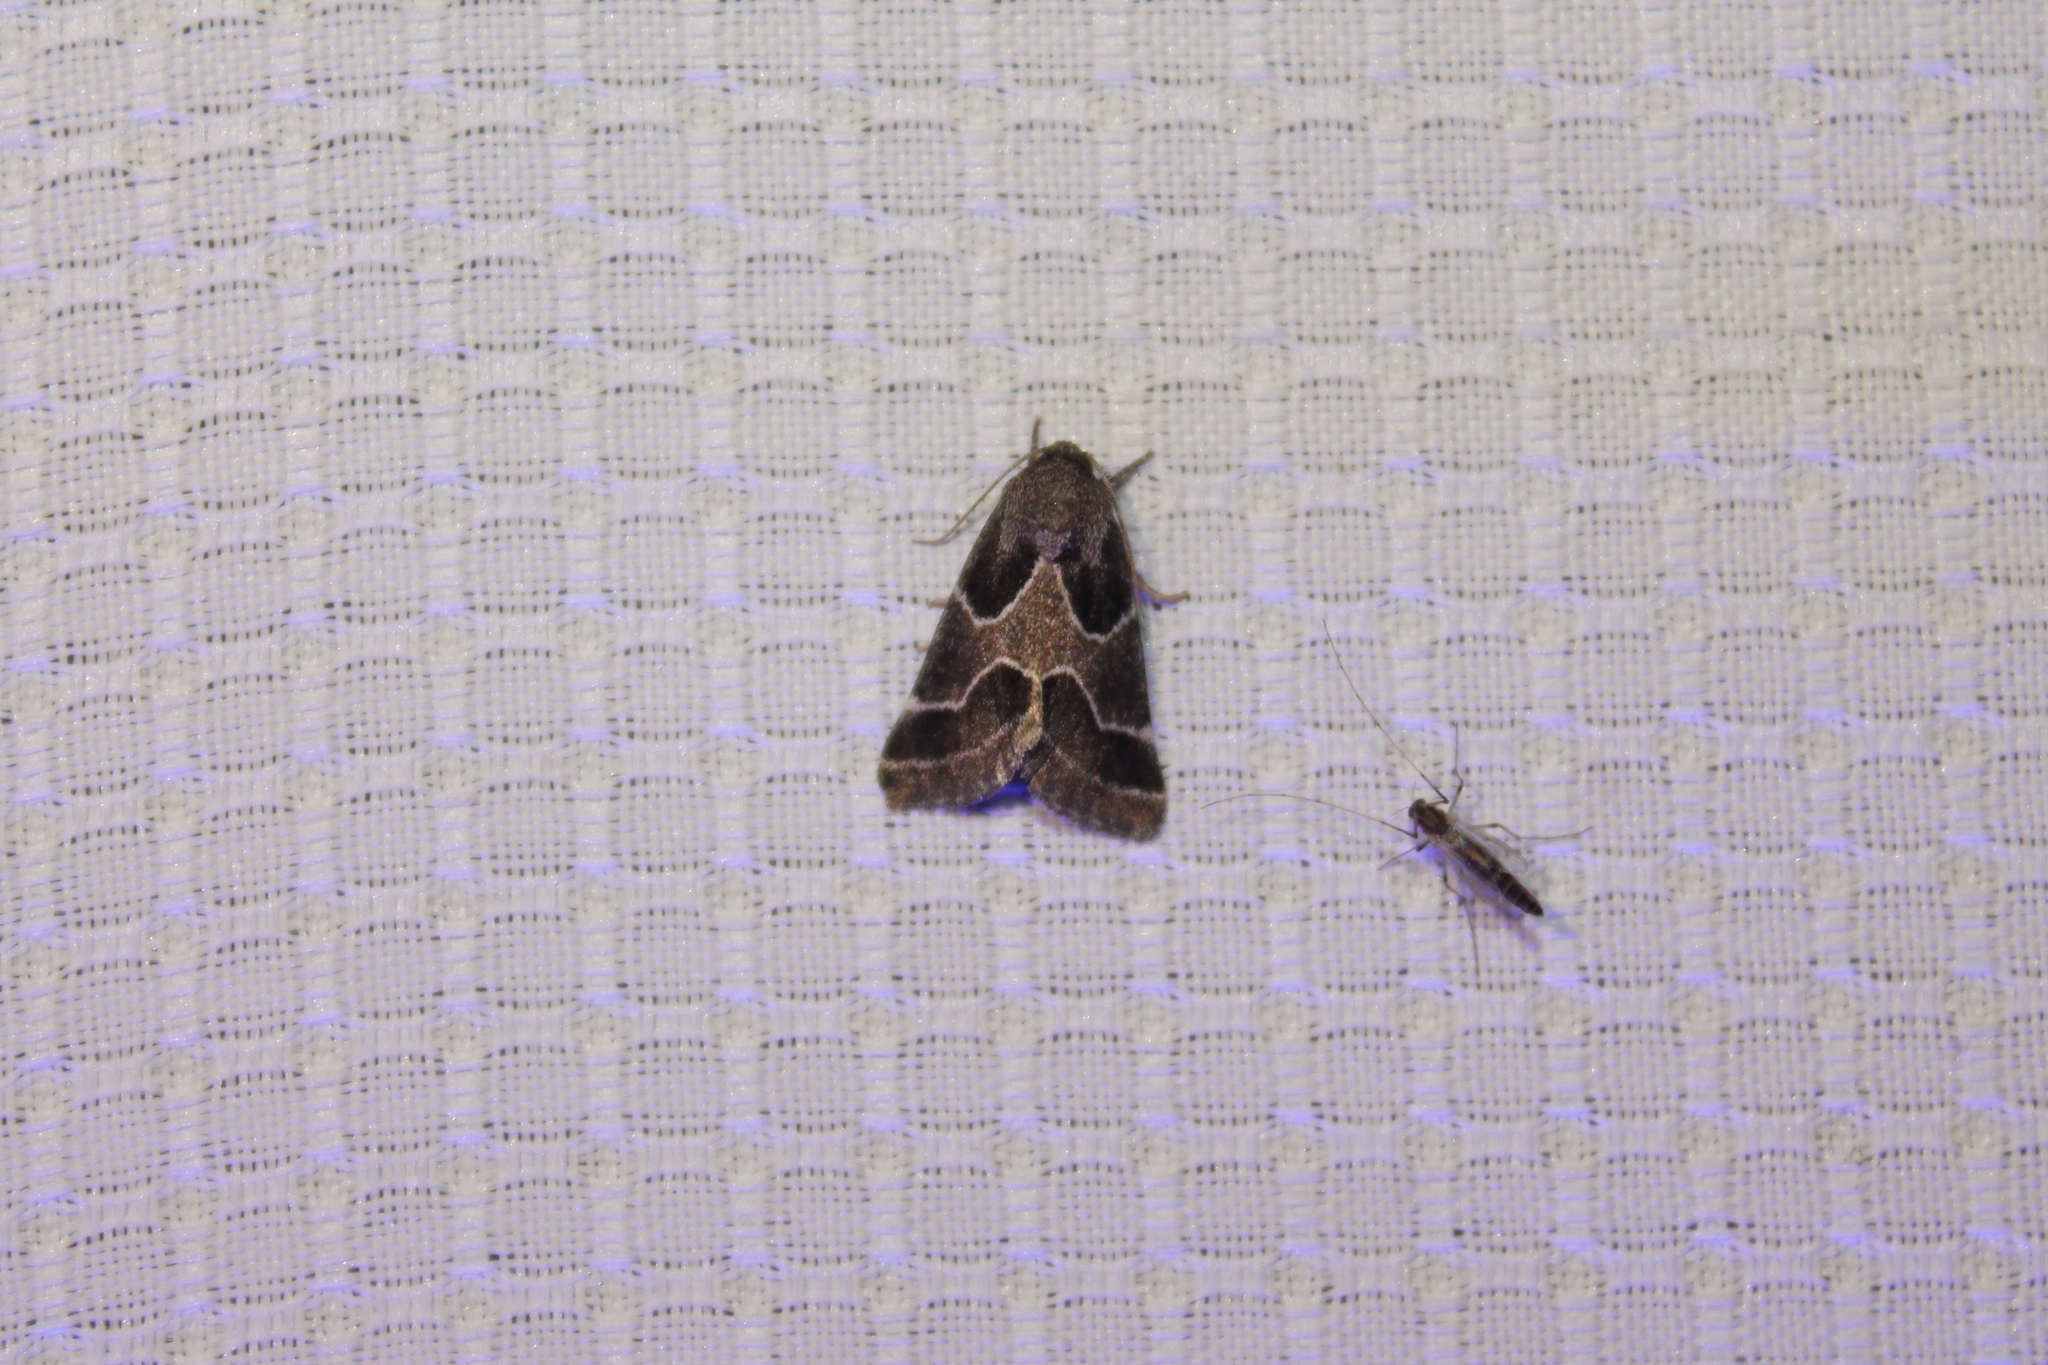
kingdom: Animalia
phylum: Arthropoda
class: Insecta
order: Lepidoptera
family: Noctuidae
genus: Schinia
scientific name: Schinia rivulosa
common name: Scarce meal-moth
